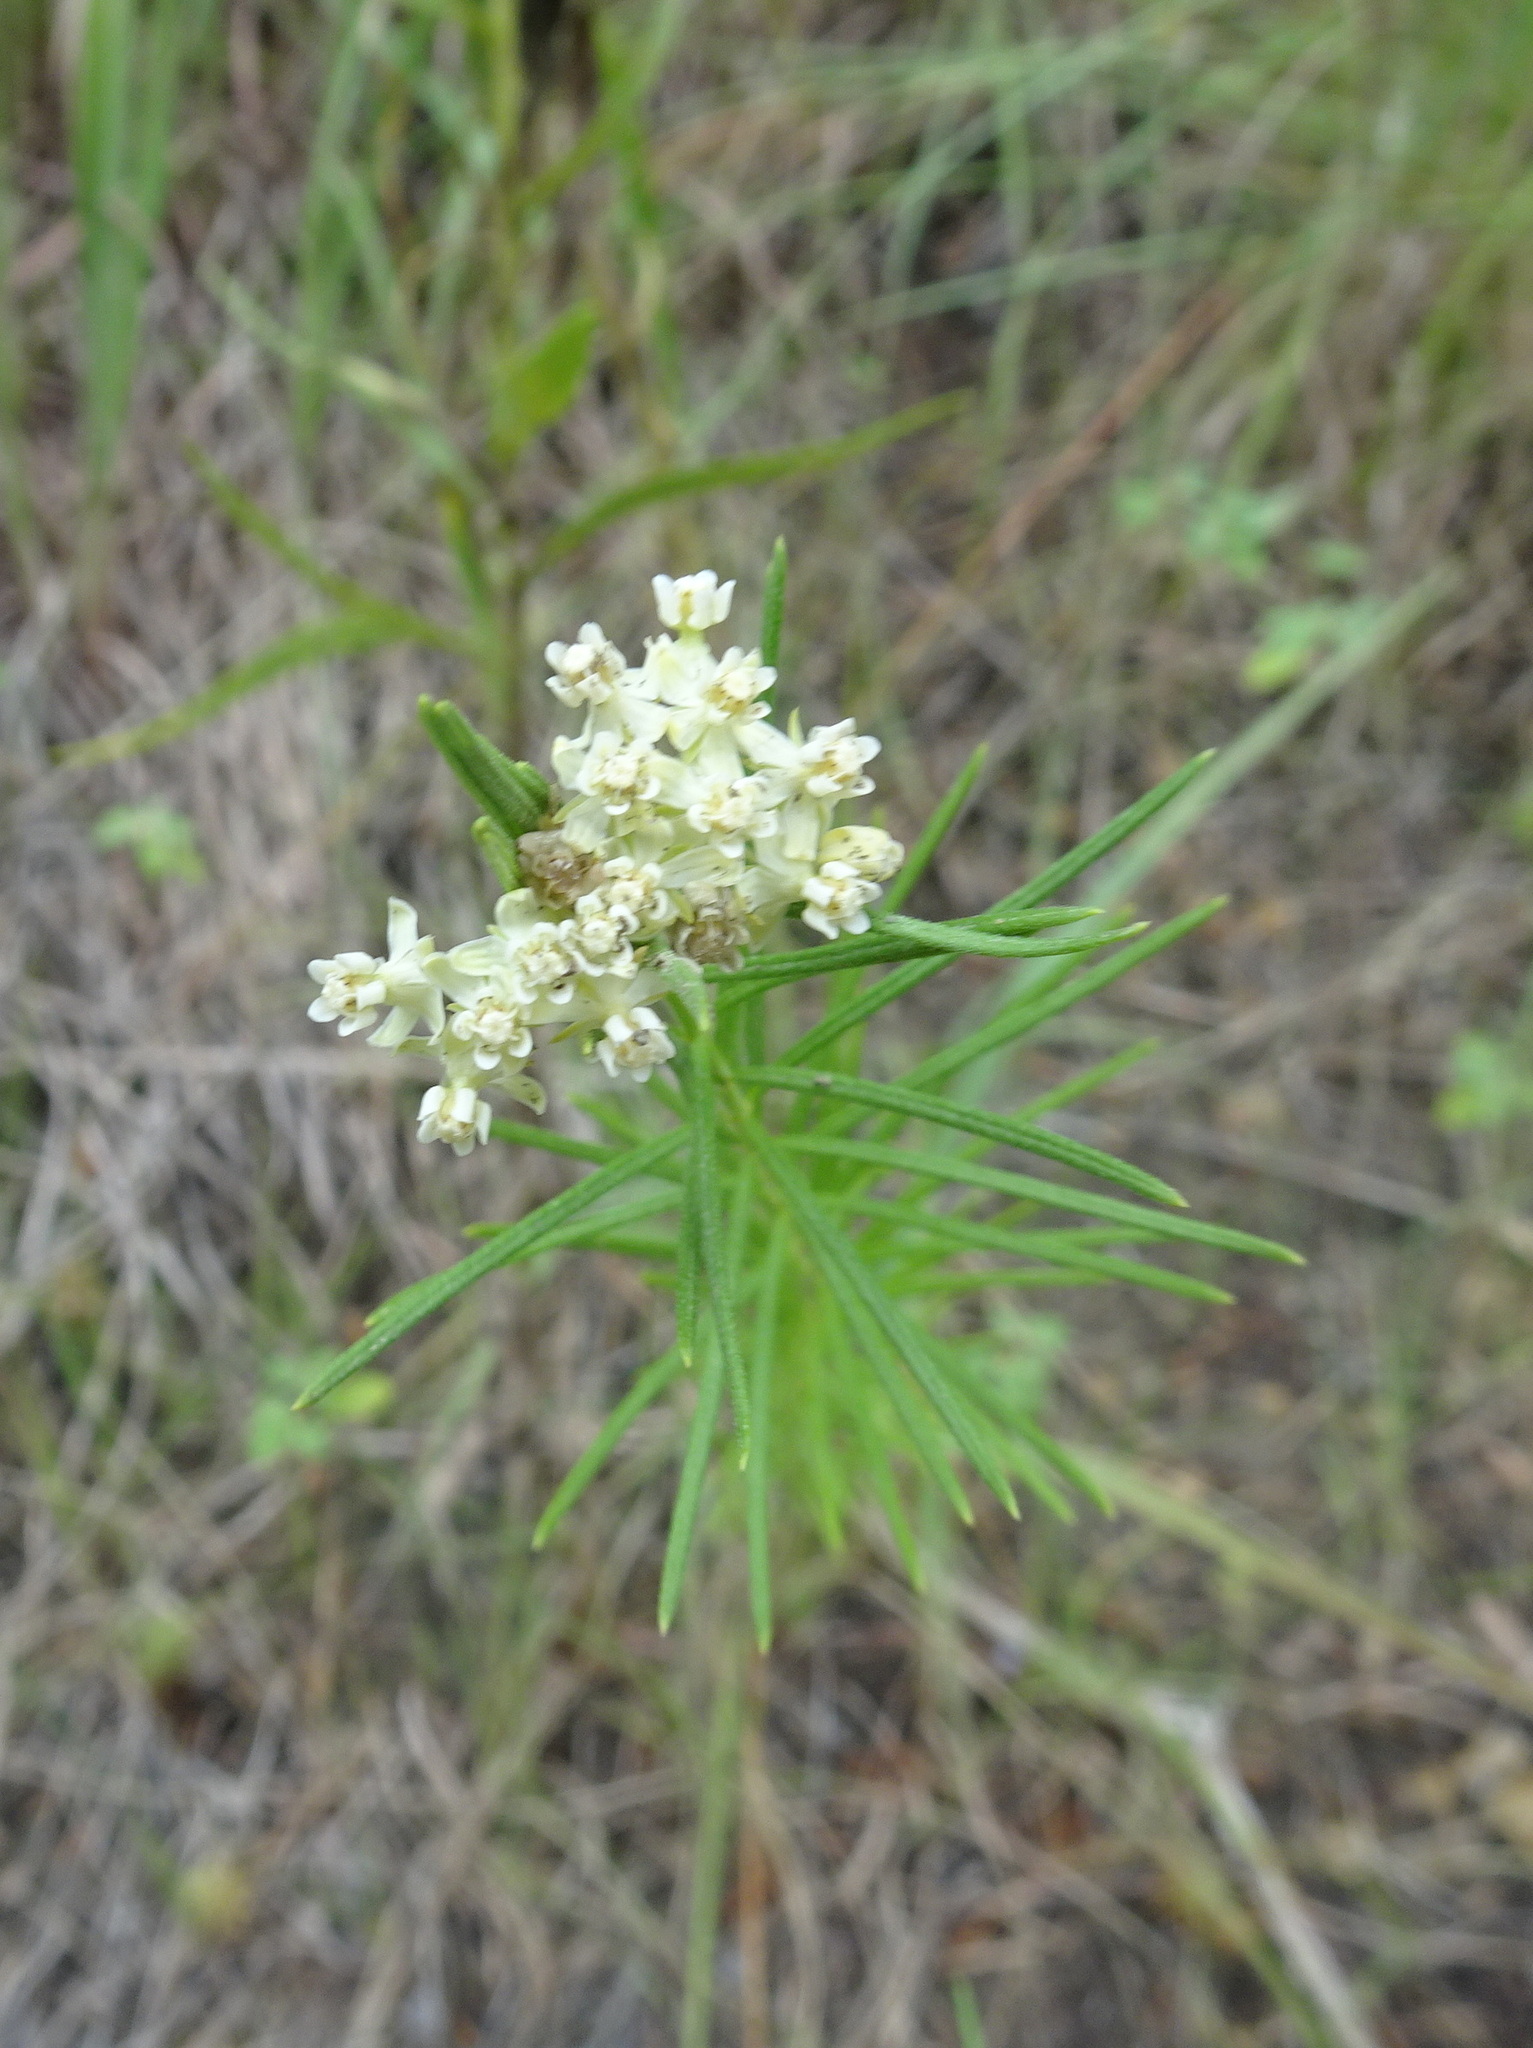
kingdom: Plantae
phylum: Tracheophyta
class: Magnoliopsida
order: Gentianales
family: Apocynaceae
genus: Asclepias
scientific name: Asclepias verticillata
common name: Eastern whorled milkweed
